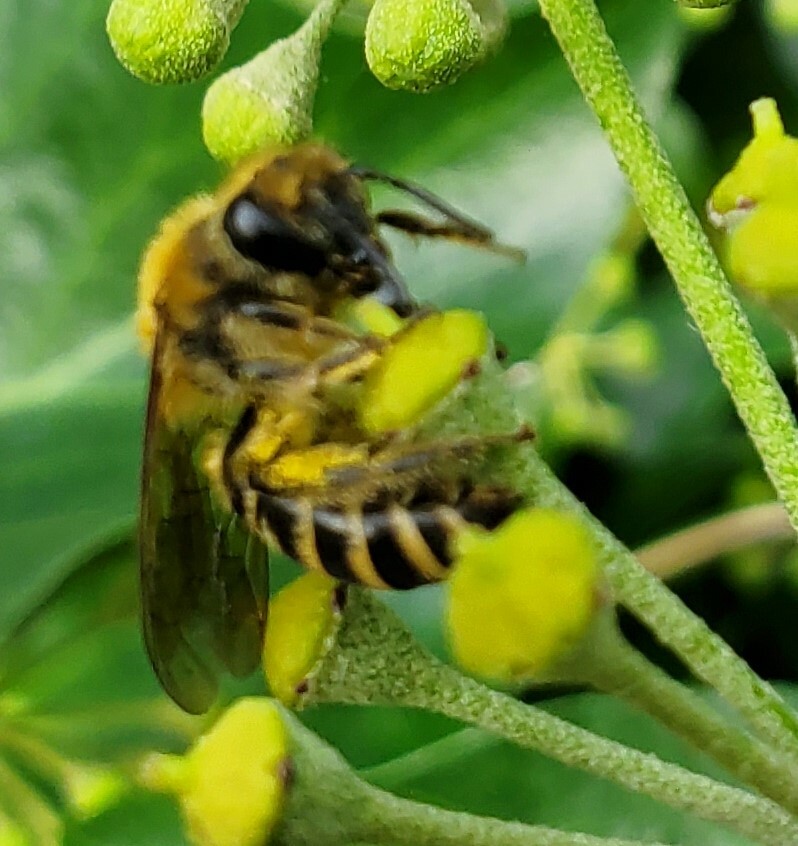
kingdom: Animalia
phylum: Arthropoda
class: Insecta
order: Hymenoptera
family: Colletidae
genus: Colletes
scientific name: Colletes hederae
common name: Ivy bee
